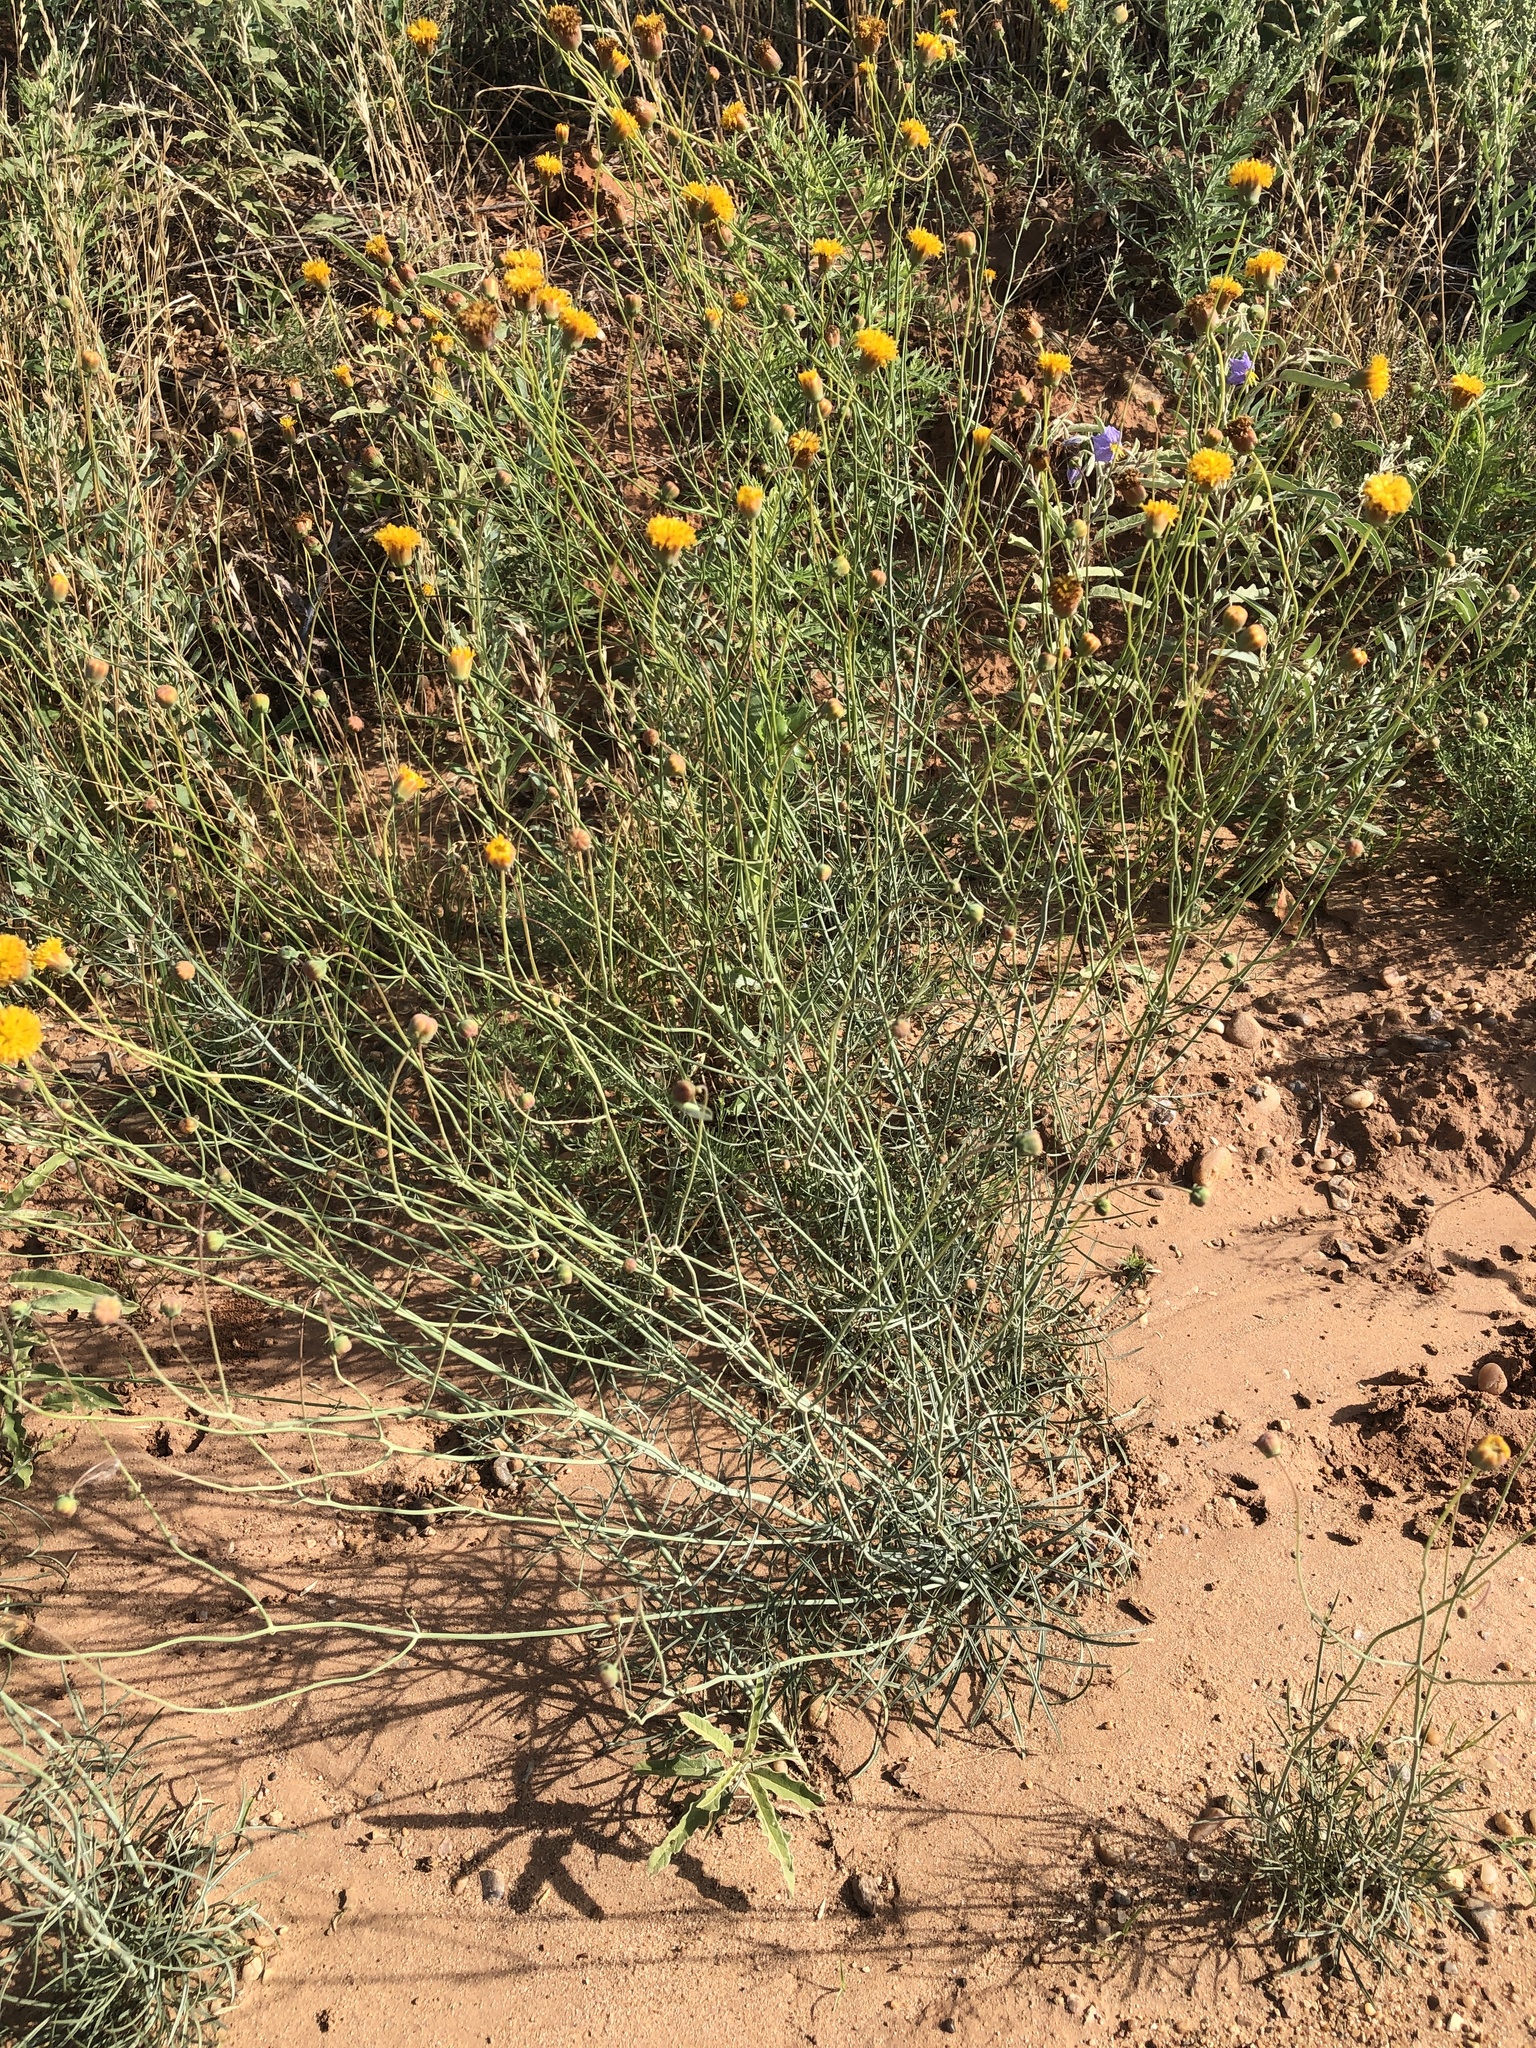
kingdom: Plantae
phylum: Tracheophyta
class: Magnoliopsida
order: Asterales
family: Asteraceae
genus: Thelesperma
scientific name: Thelesperma megapotamicum
